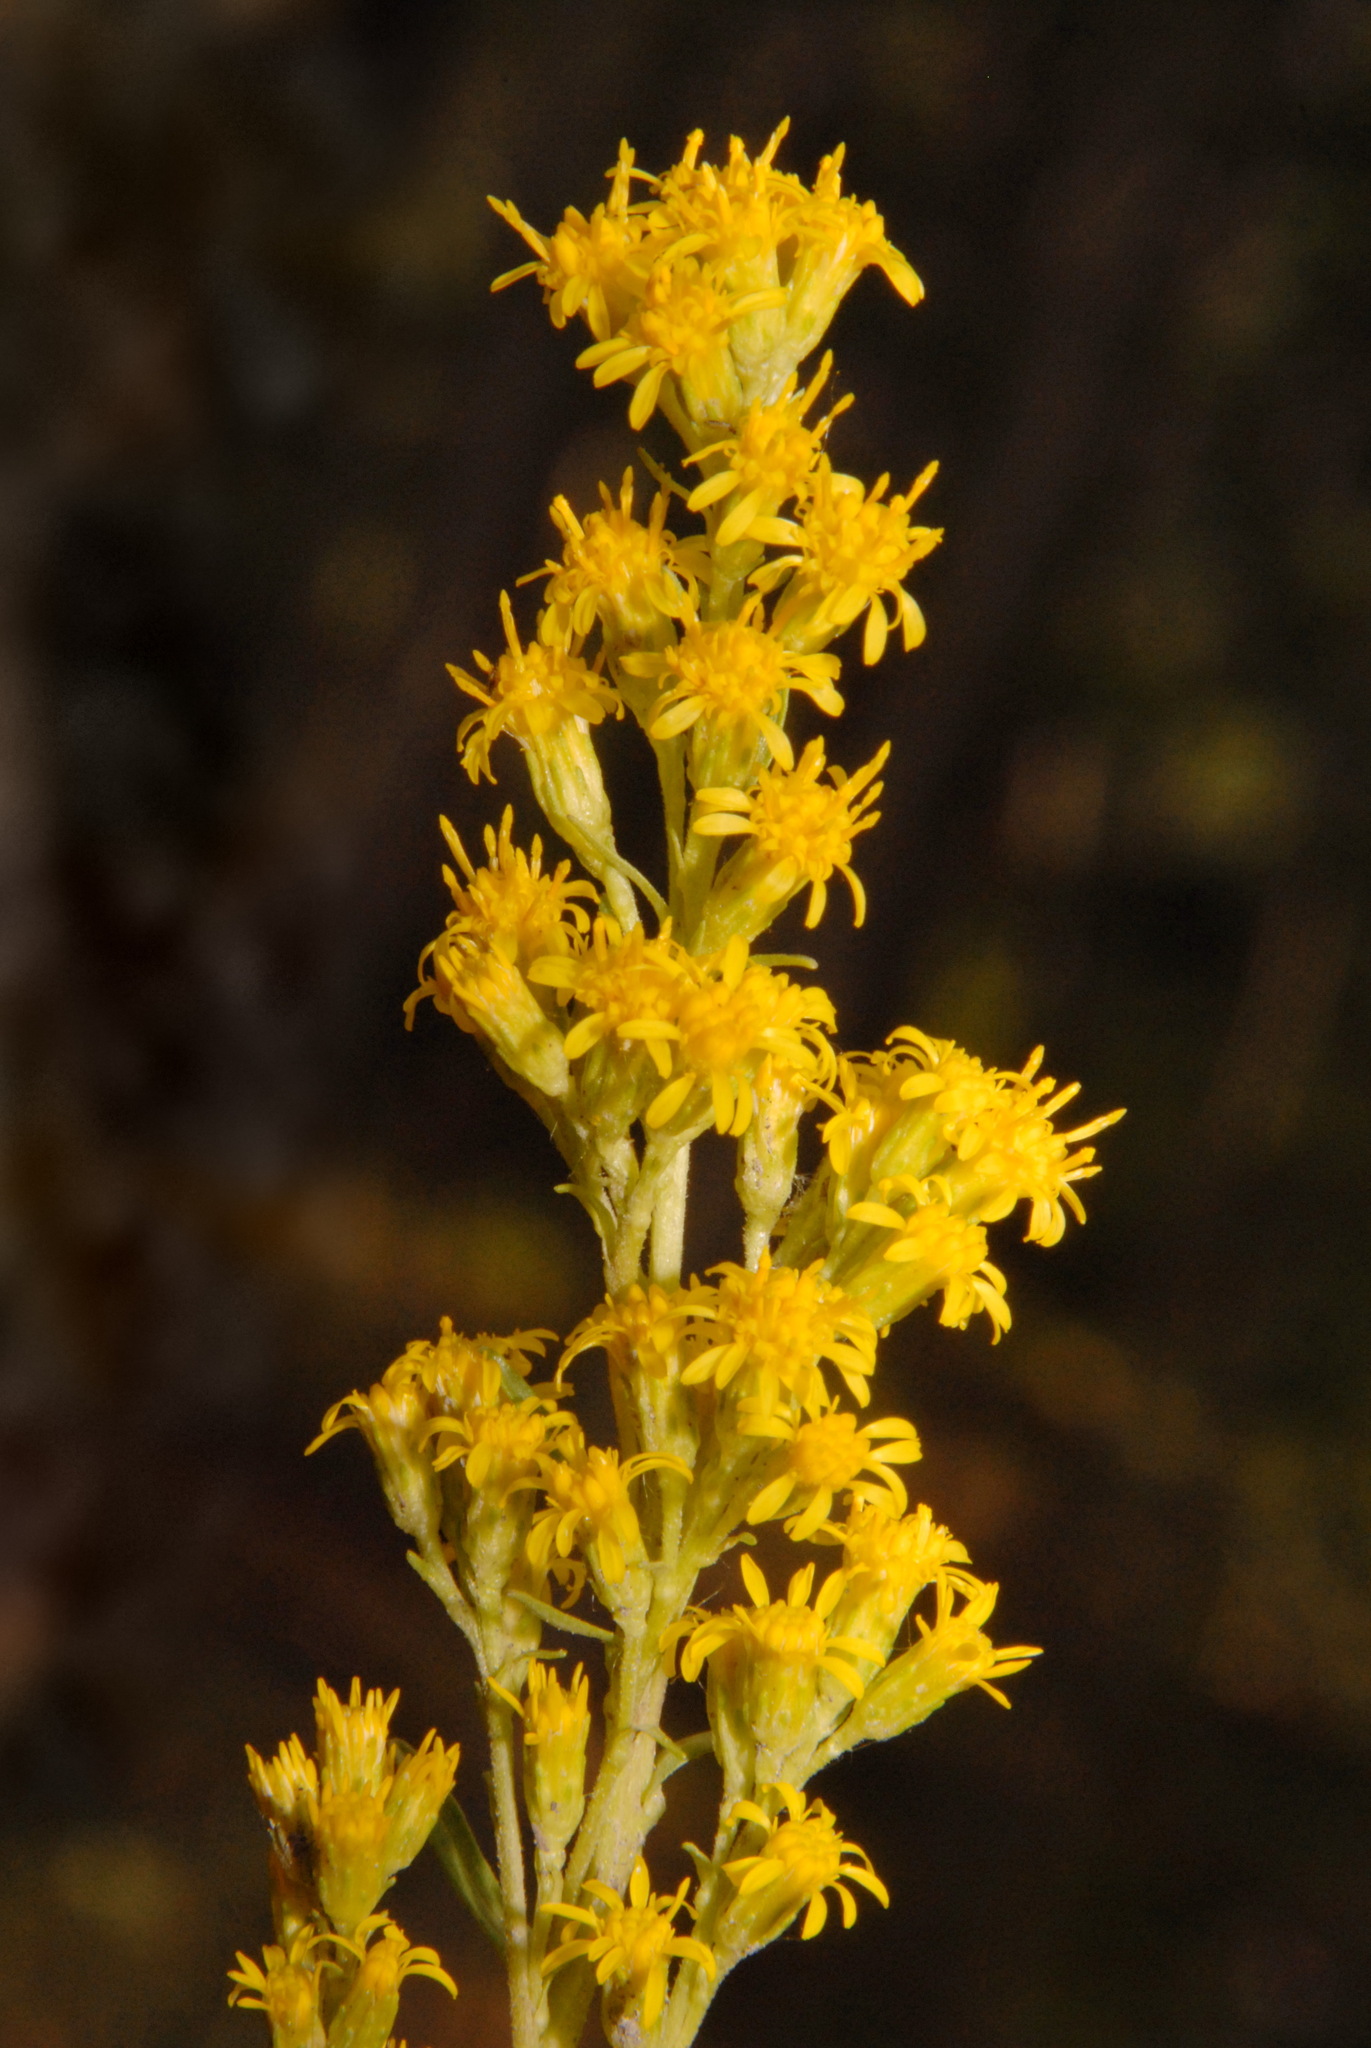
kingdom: Plantae
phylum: Tracheophyta
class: Magnoliopsida
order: Asterales
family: Asteraceae
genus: Solidago
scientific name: Solidago glutinosa
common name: Decumbent goldenrod
